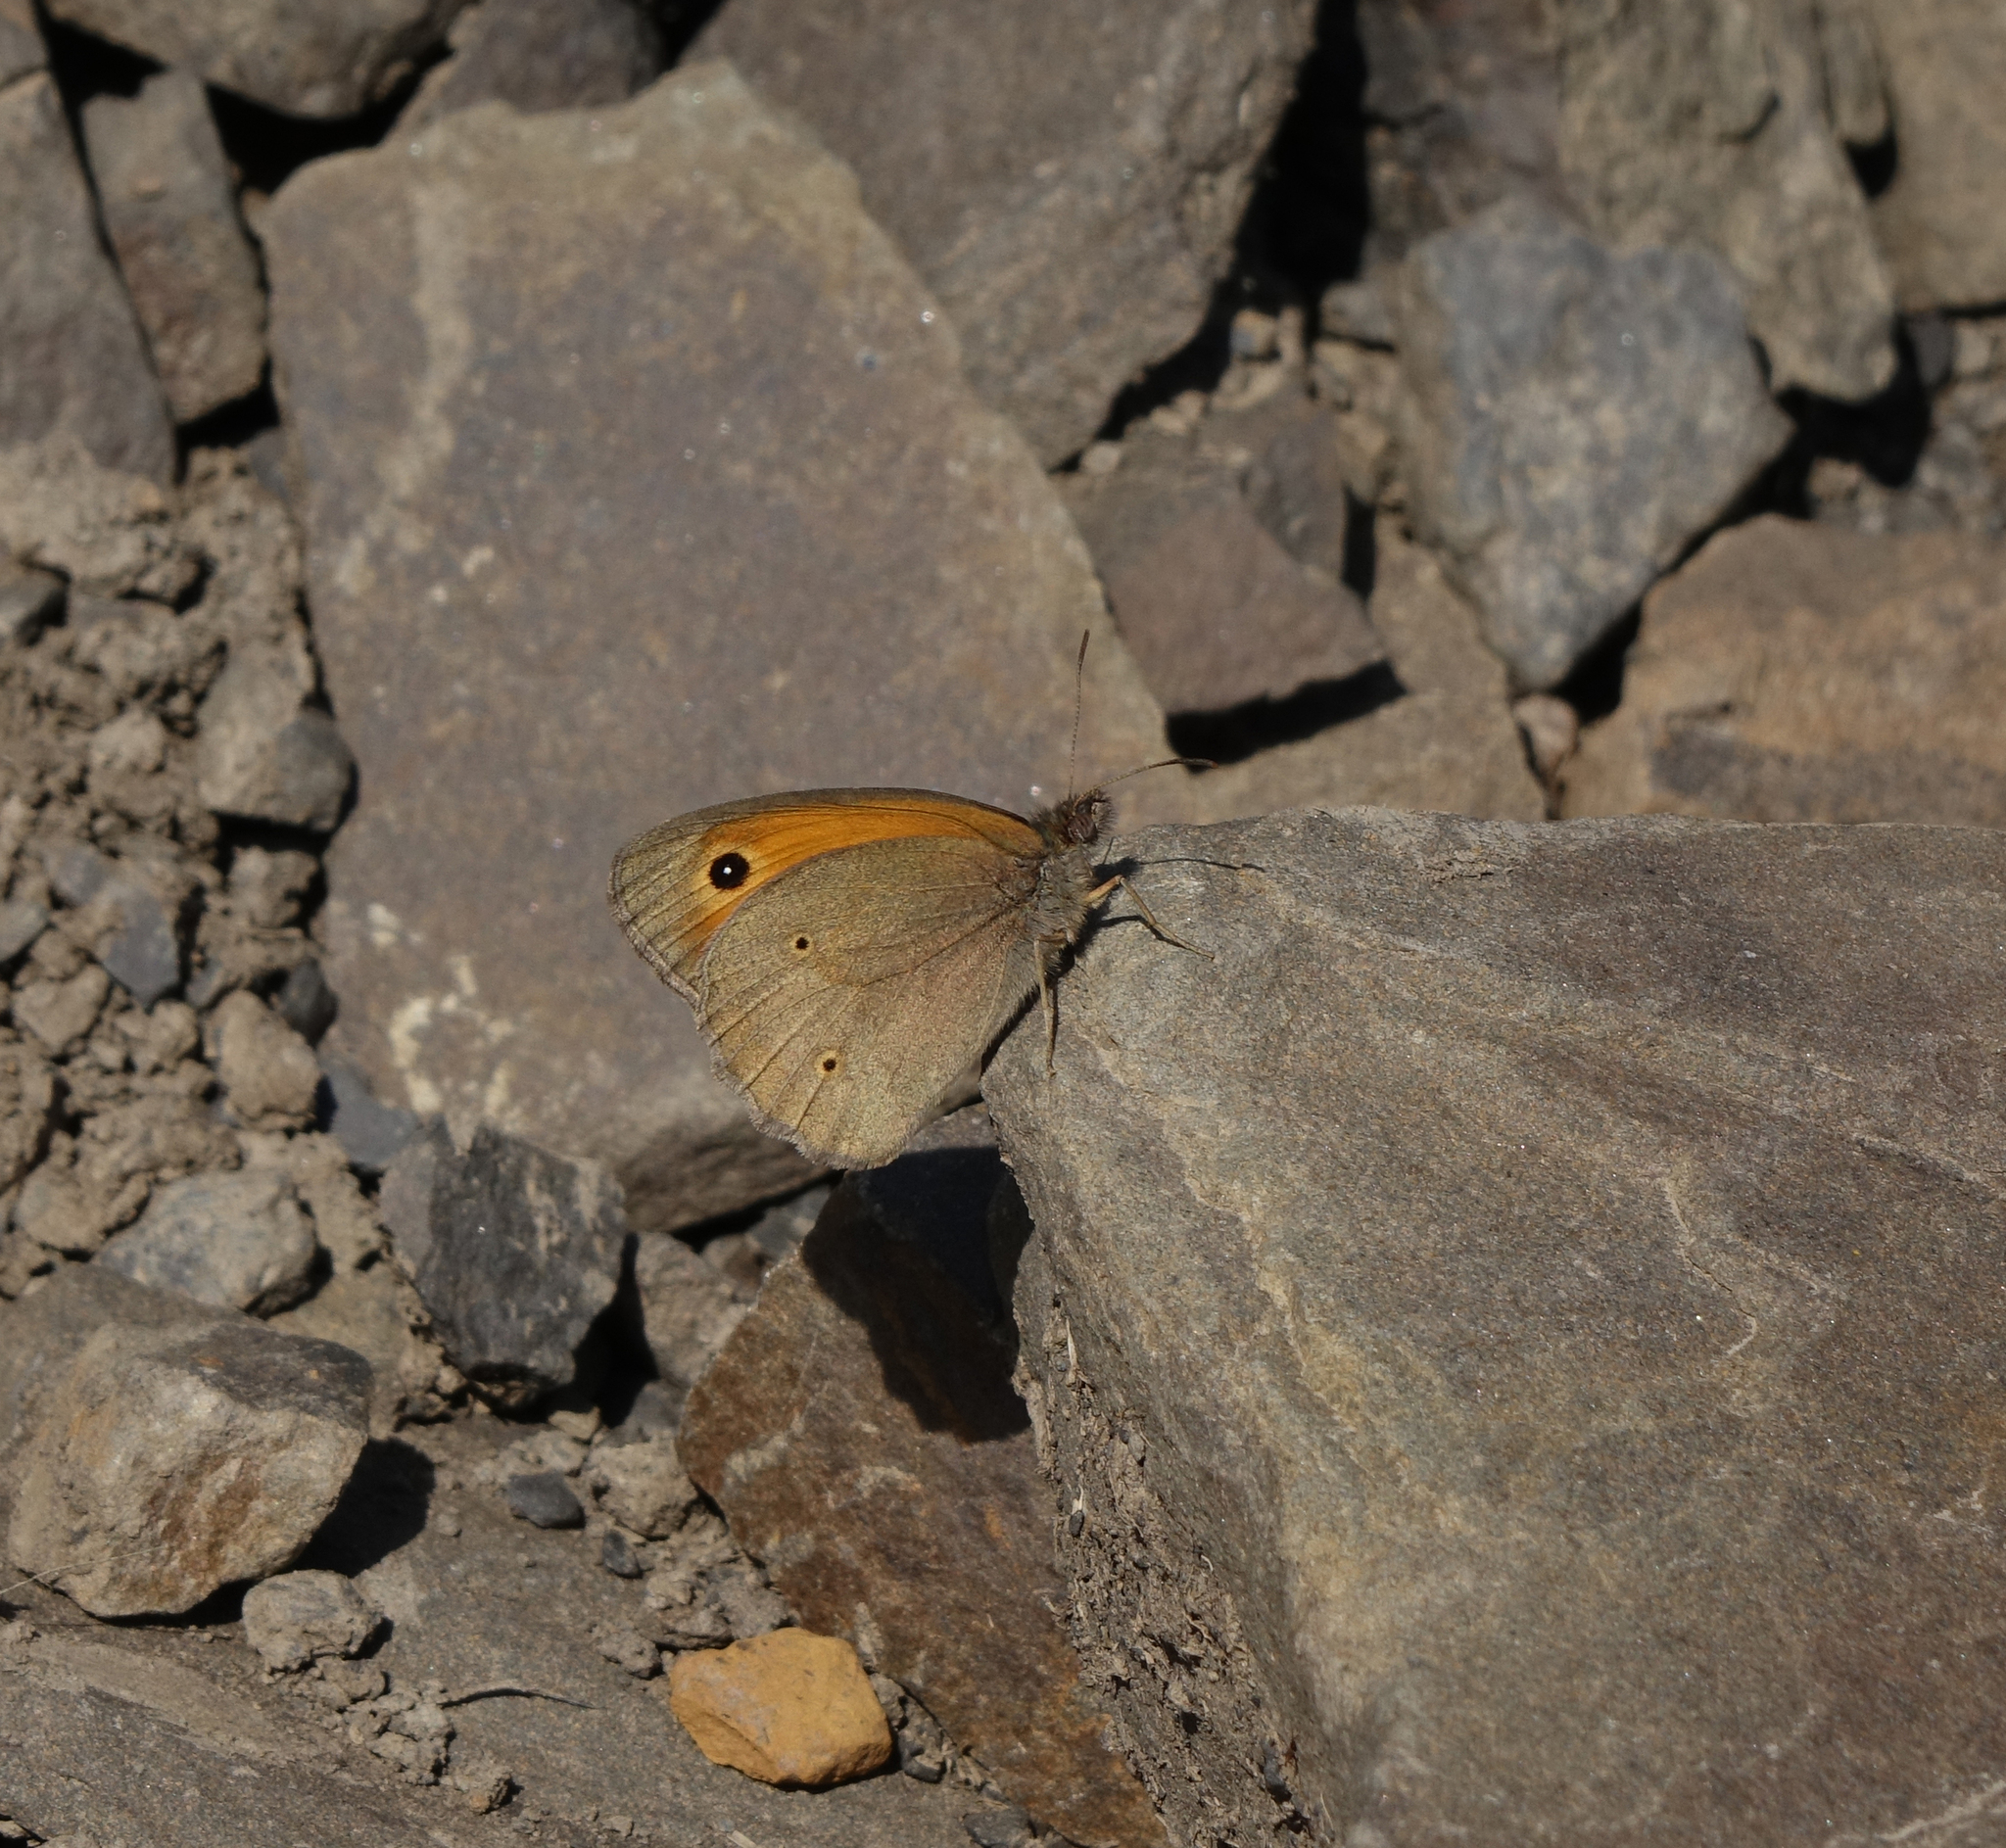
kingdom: Animalia
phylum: Arthropoda
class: Insecta
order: Lepidoptera
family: Nymphalidae
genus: Maniola
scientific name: Maniola jurtina
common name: Meadow brown
